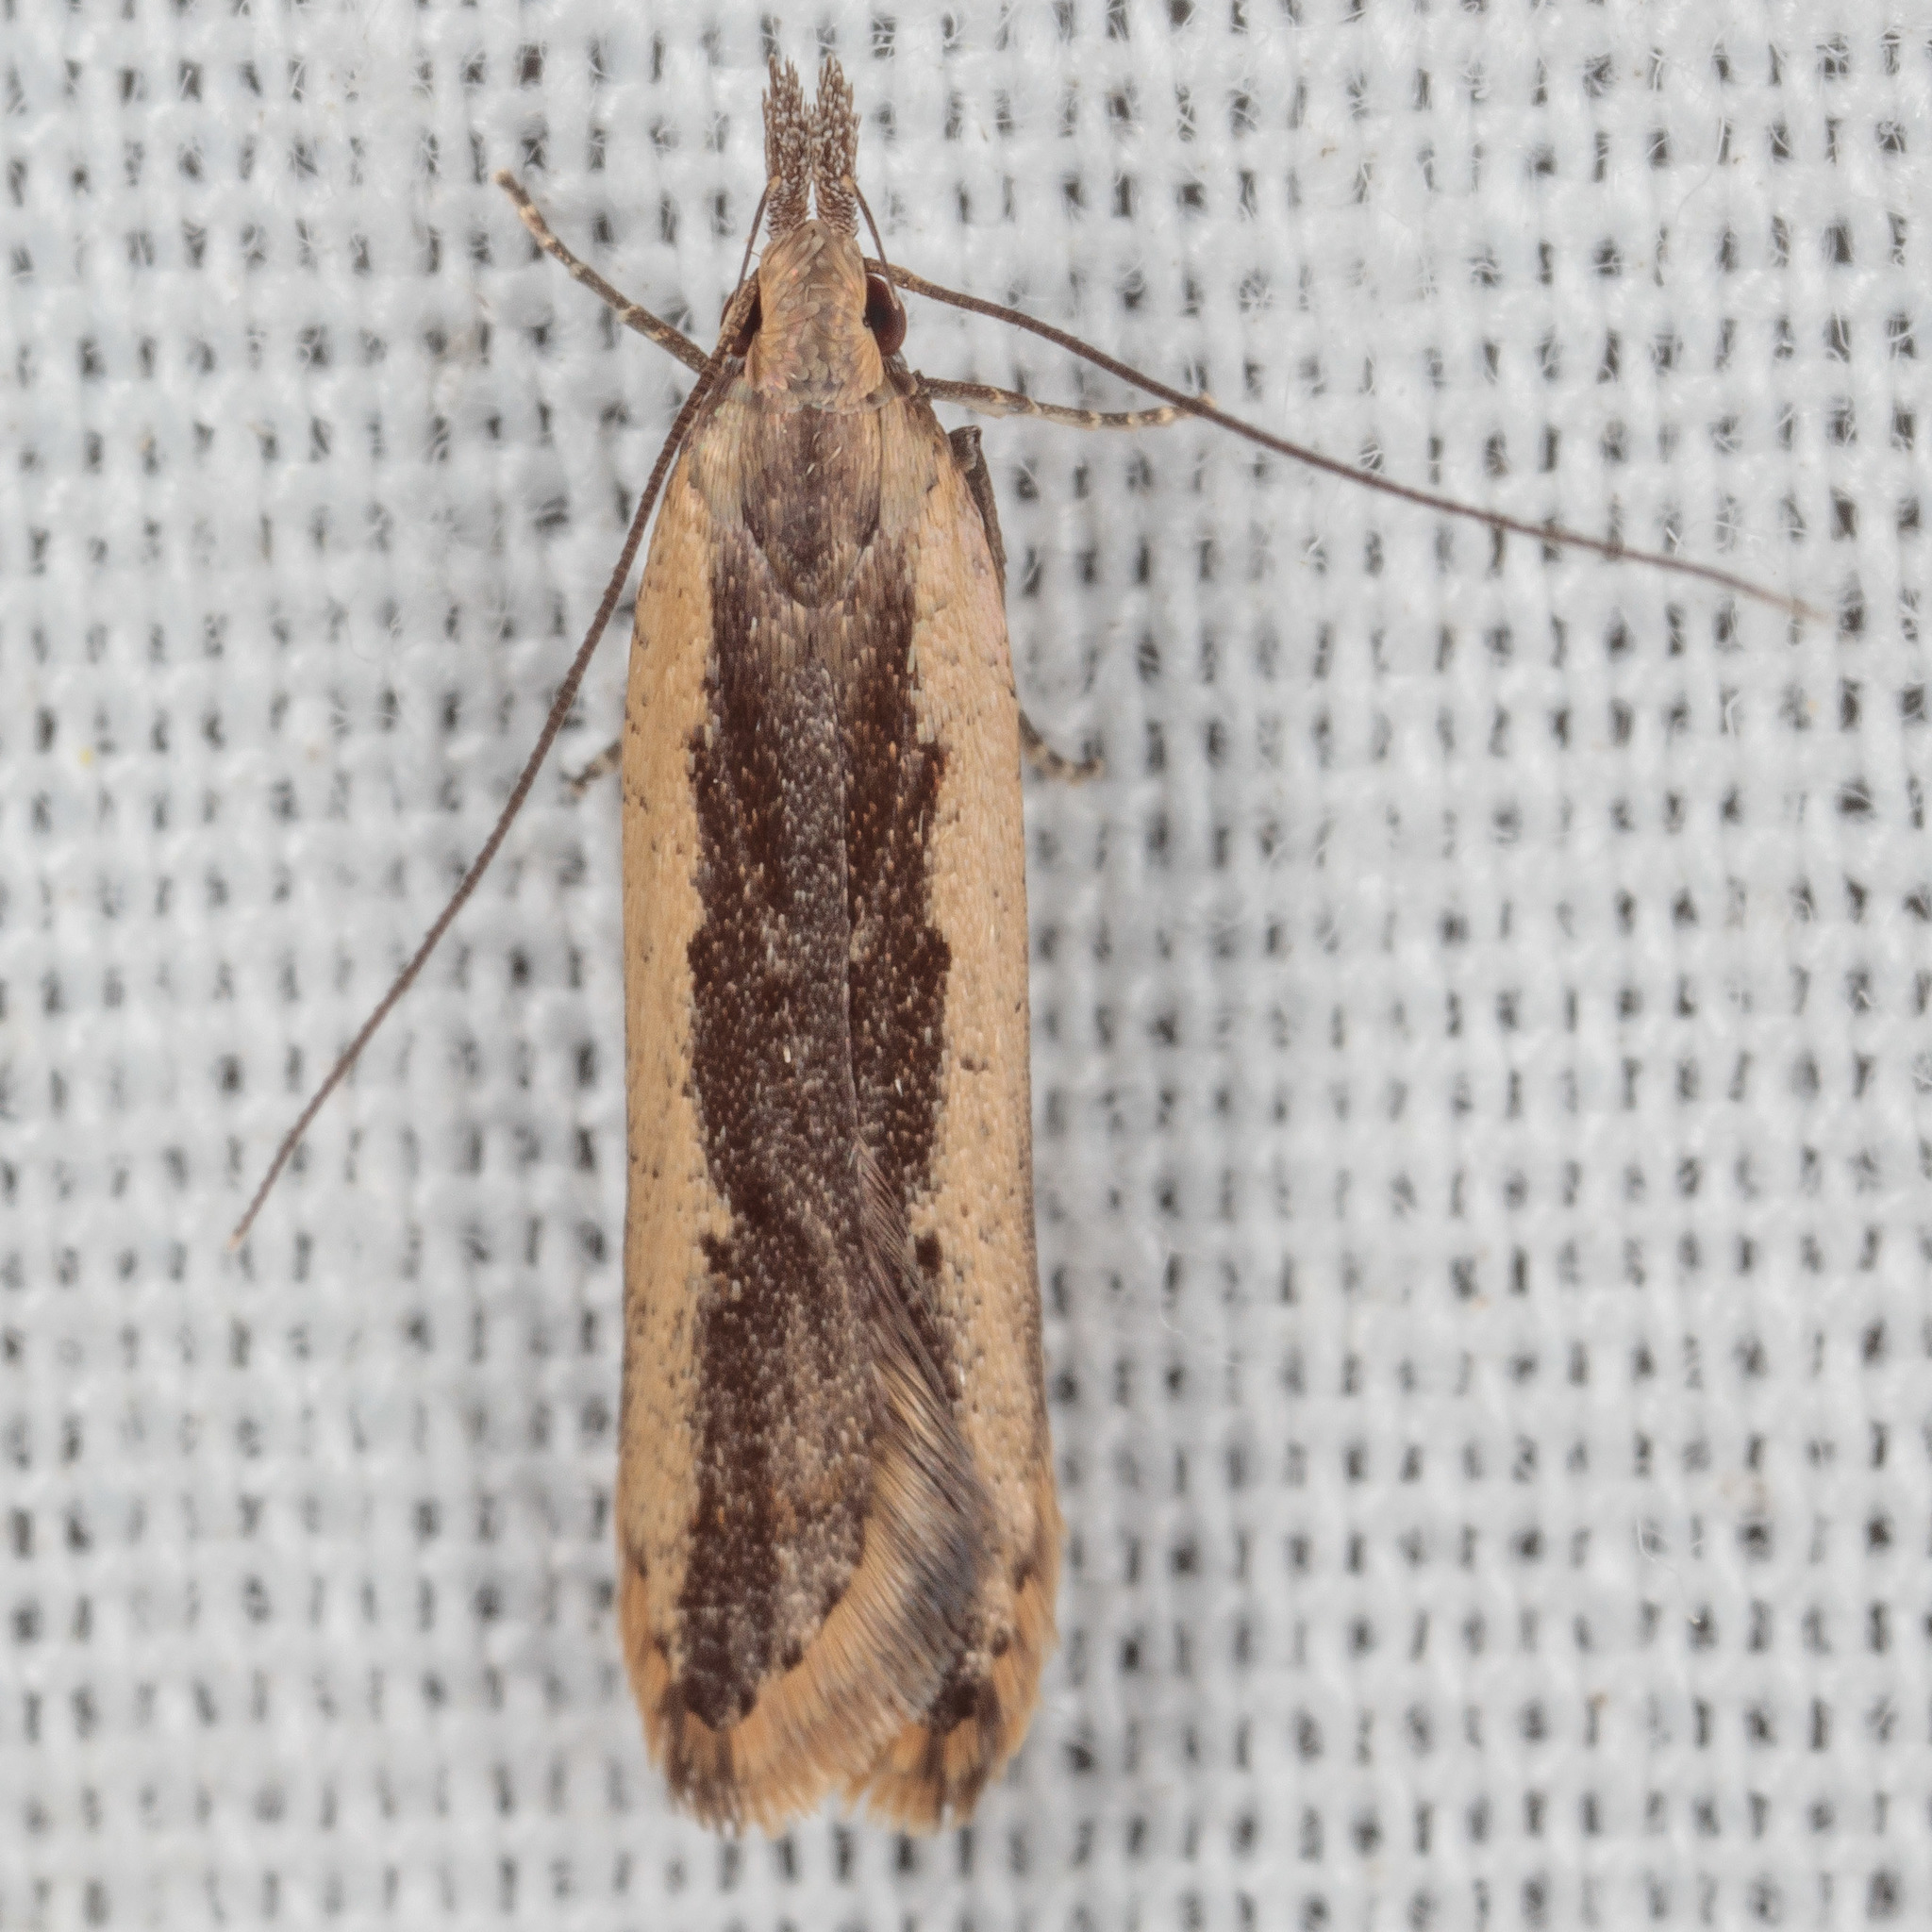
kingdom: Animalia
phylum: Arthropoda
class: Insecta
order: Lepidoptera
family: Gelechiidae
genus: Dichomeris
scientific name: Dichomeris ligulella
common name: Moth
